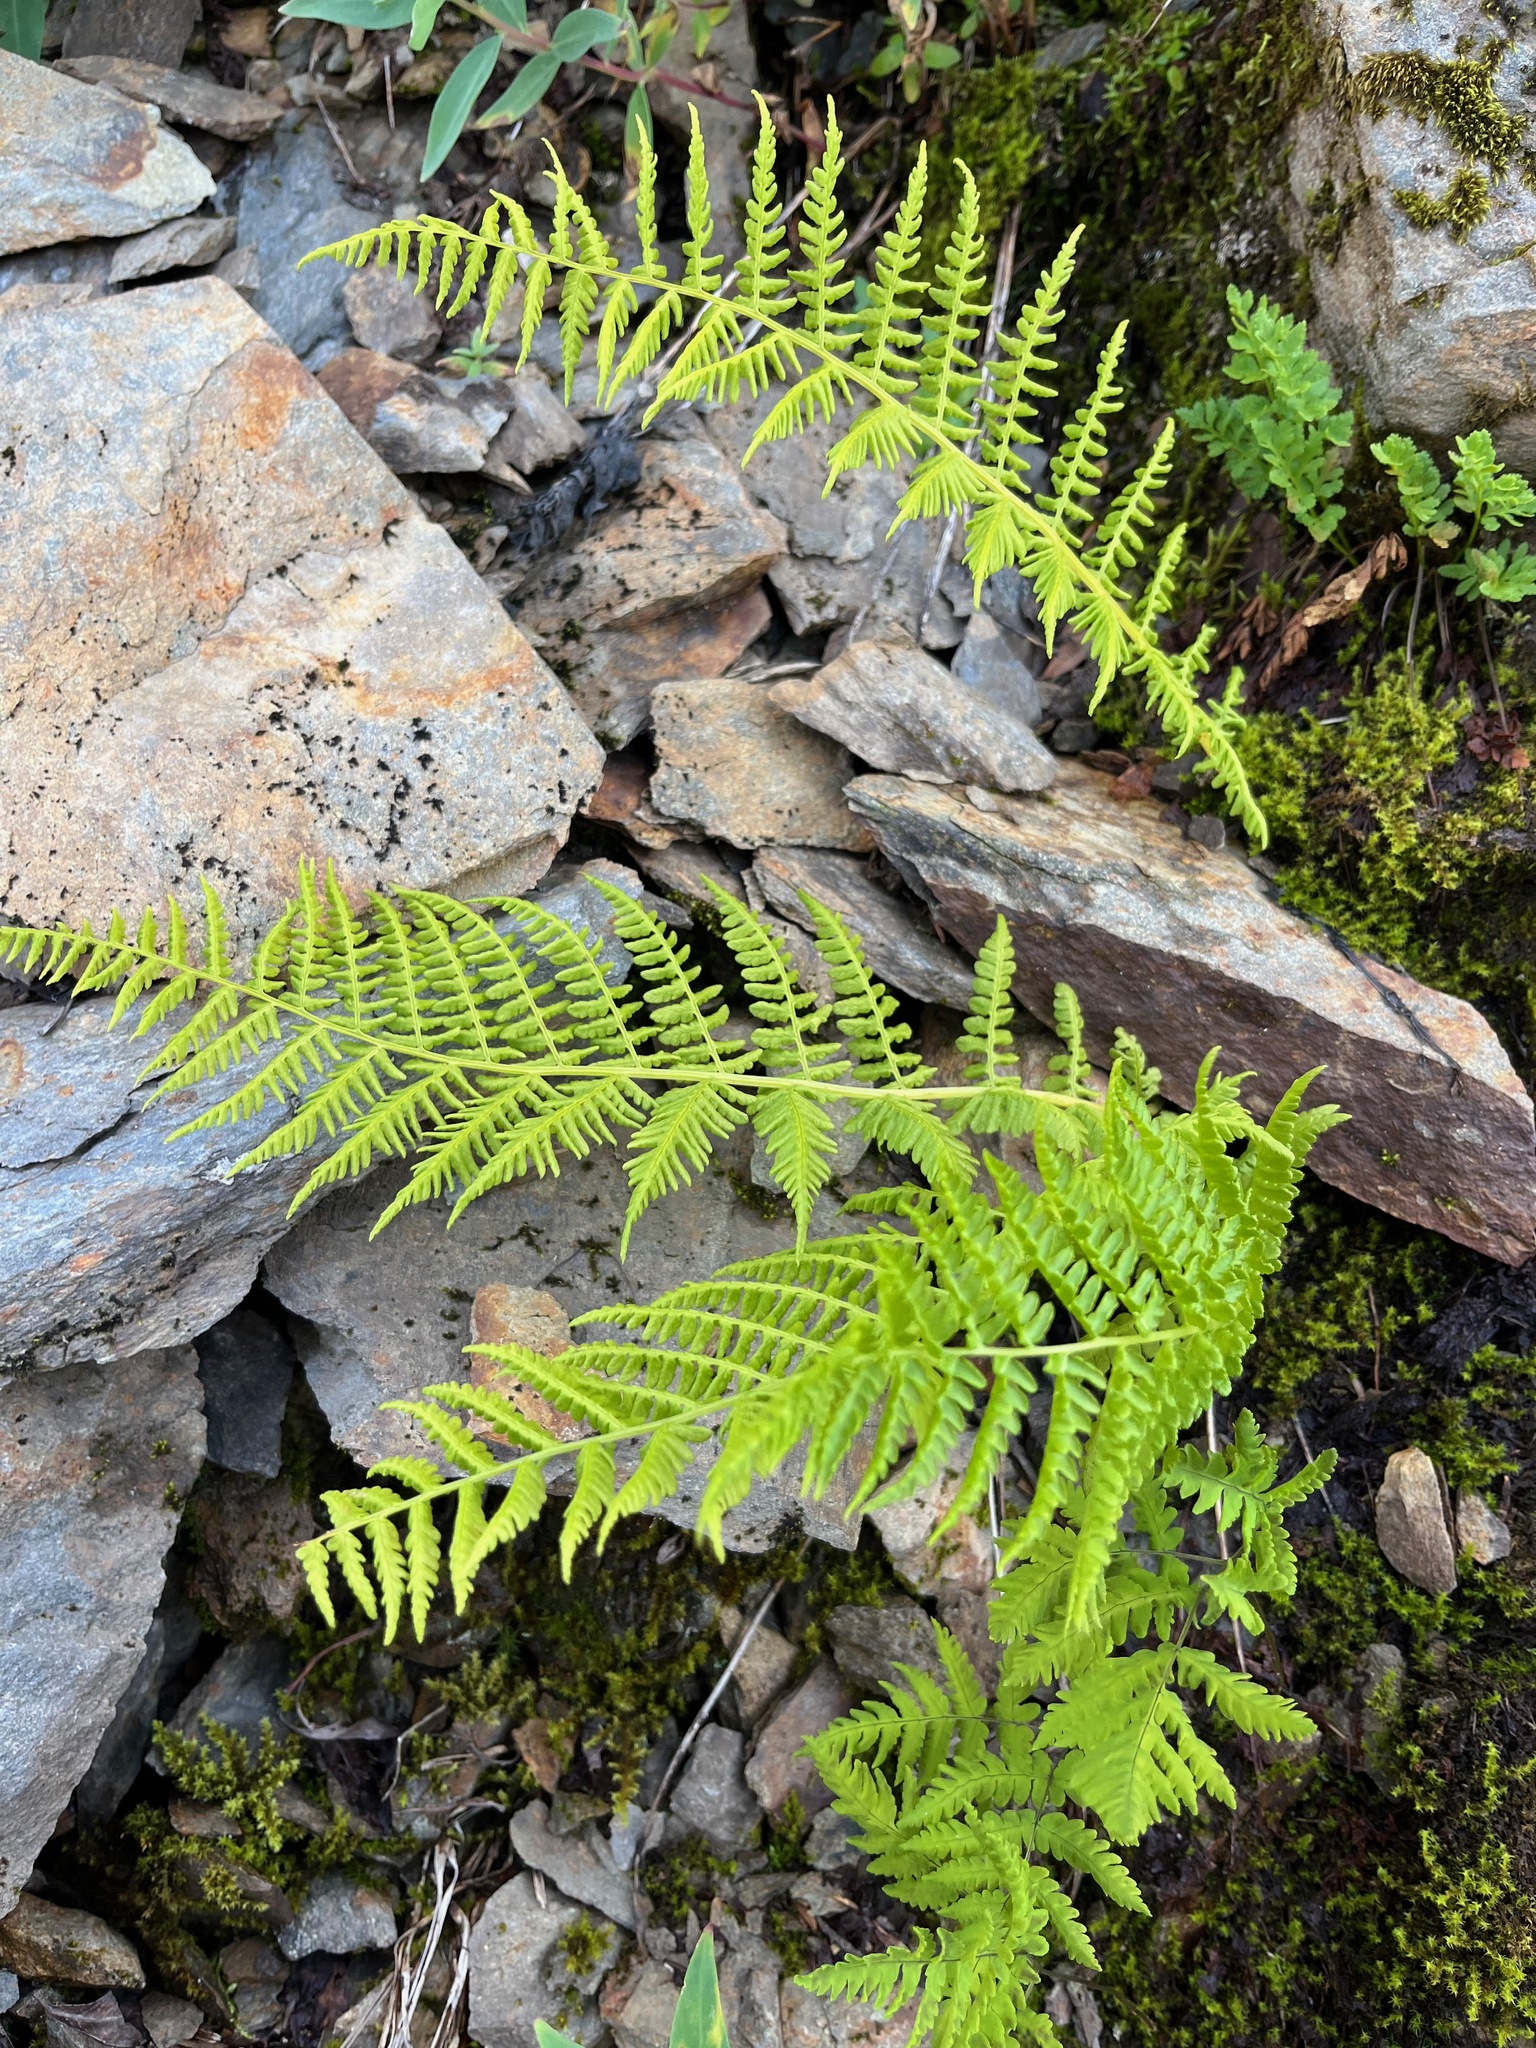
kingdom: Plantae
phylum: Tracheophyta
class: Polypodiopsida
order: Polypodiales
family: Athyriaceae
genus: Athyrium
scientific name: Athyrium filix-femina
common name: Lady fern
